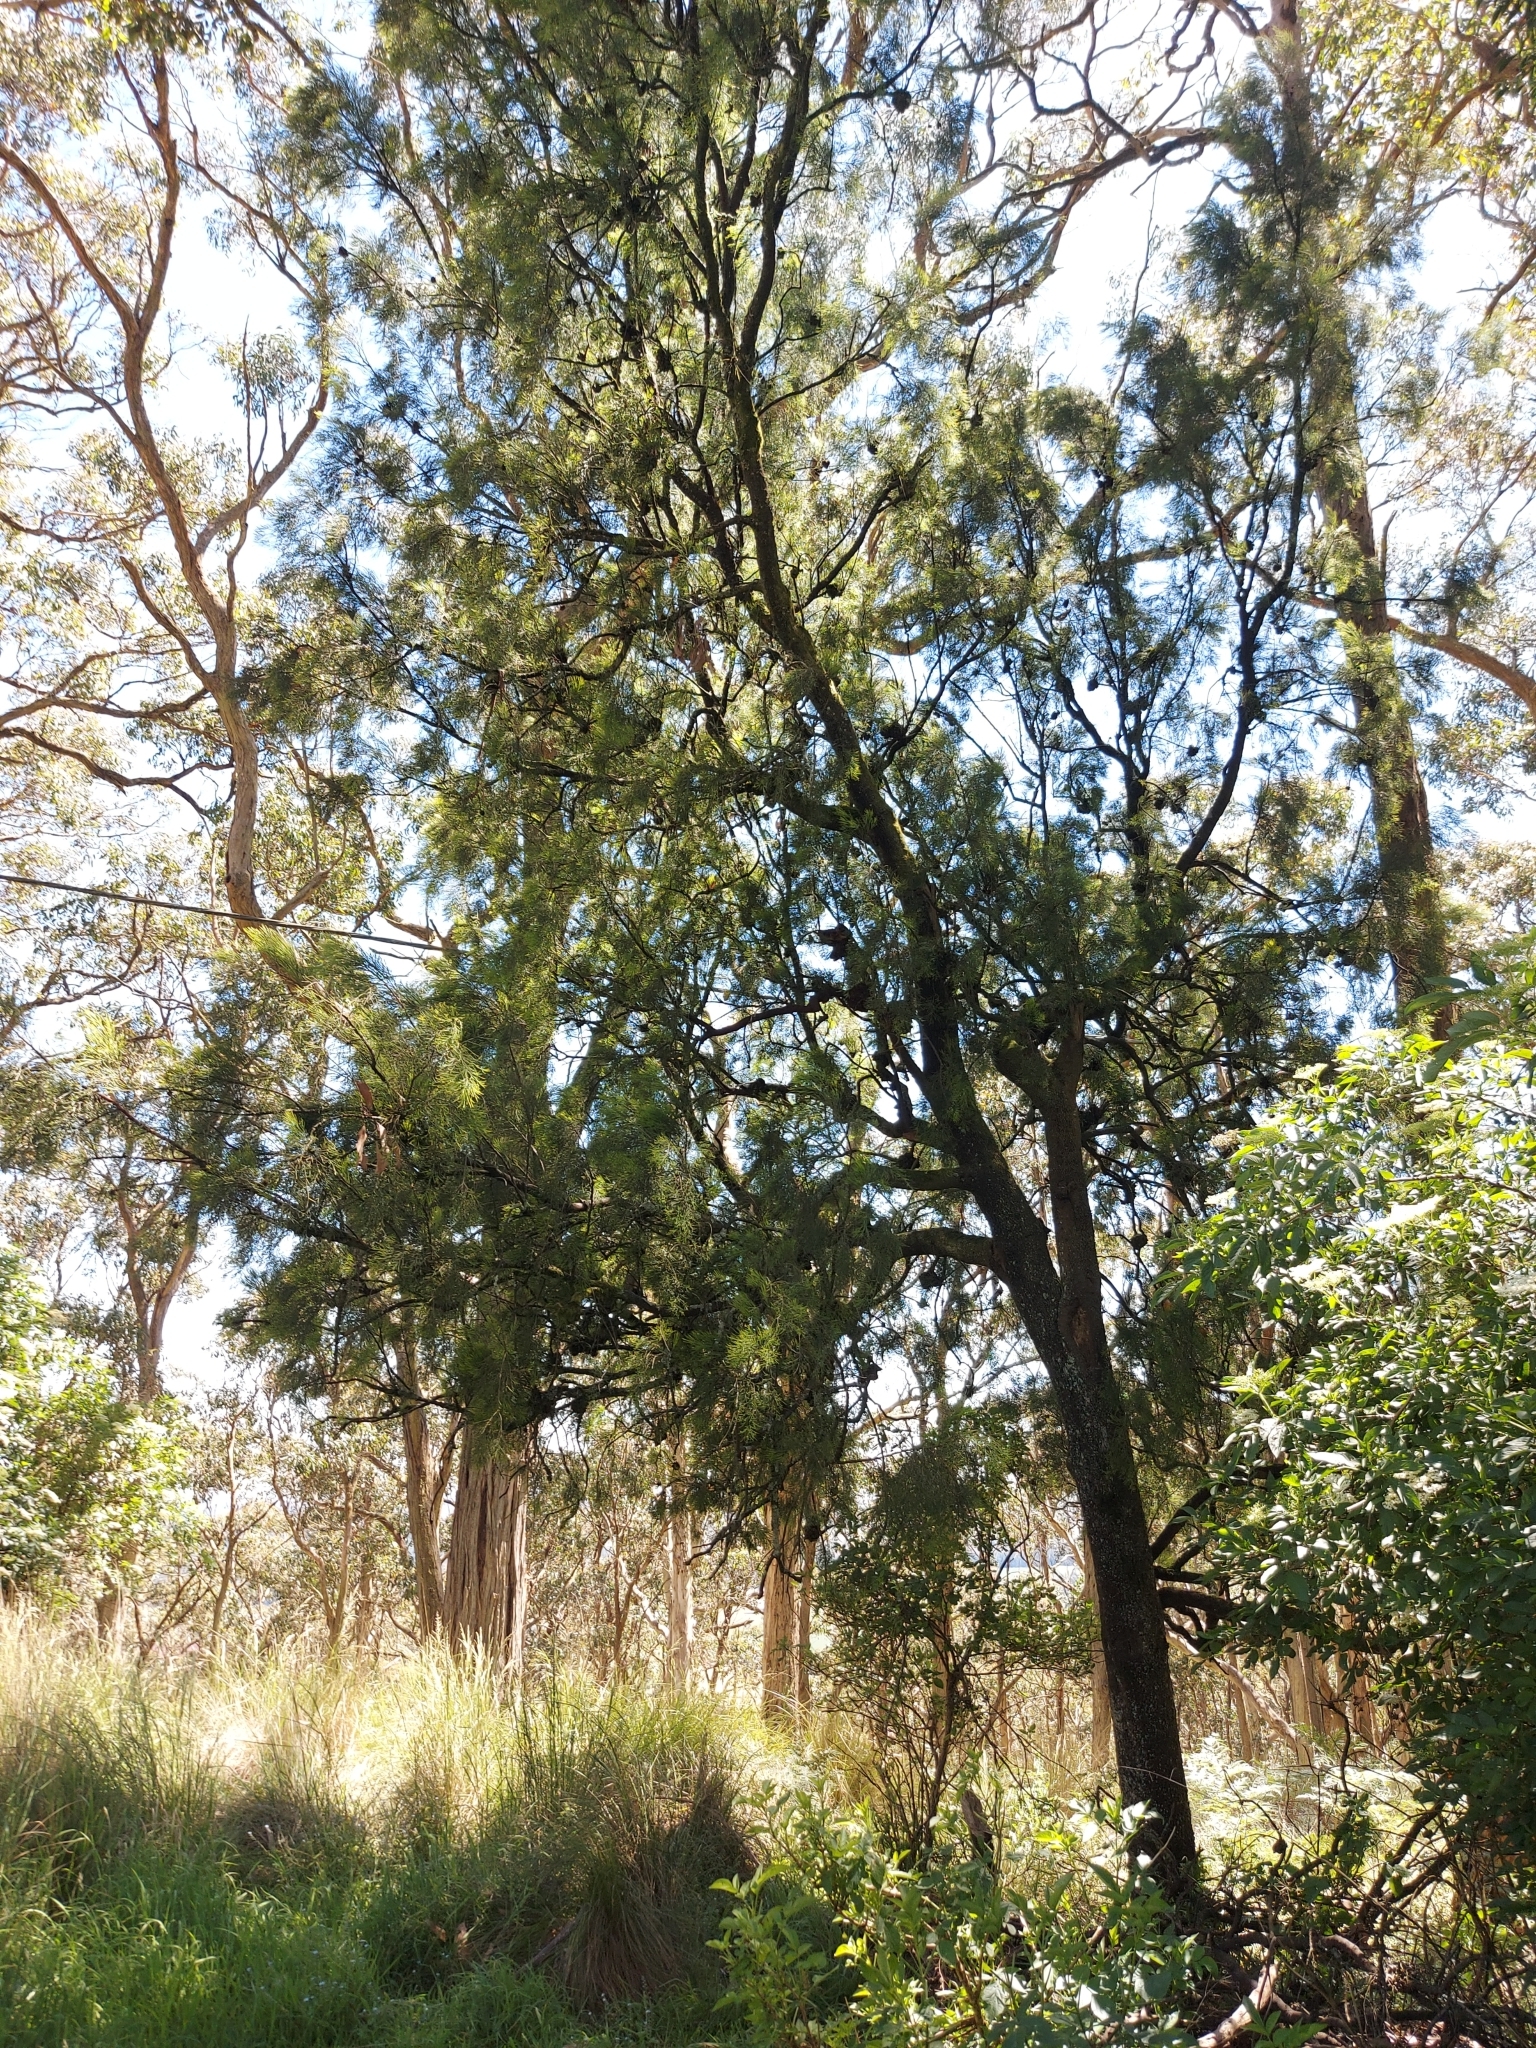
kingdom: Plantae
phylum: Tracheophyta
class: Magnoliopsida
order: Santalales
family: Santalaceae
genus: Exocarpos
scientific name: Exocarpos cupressiformis
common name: Cherry ballart
